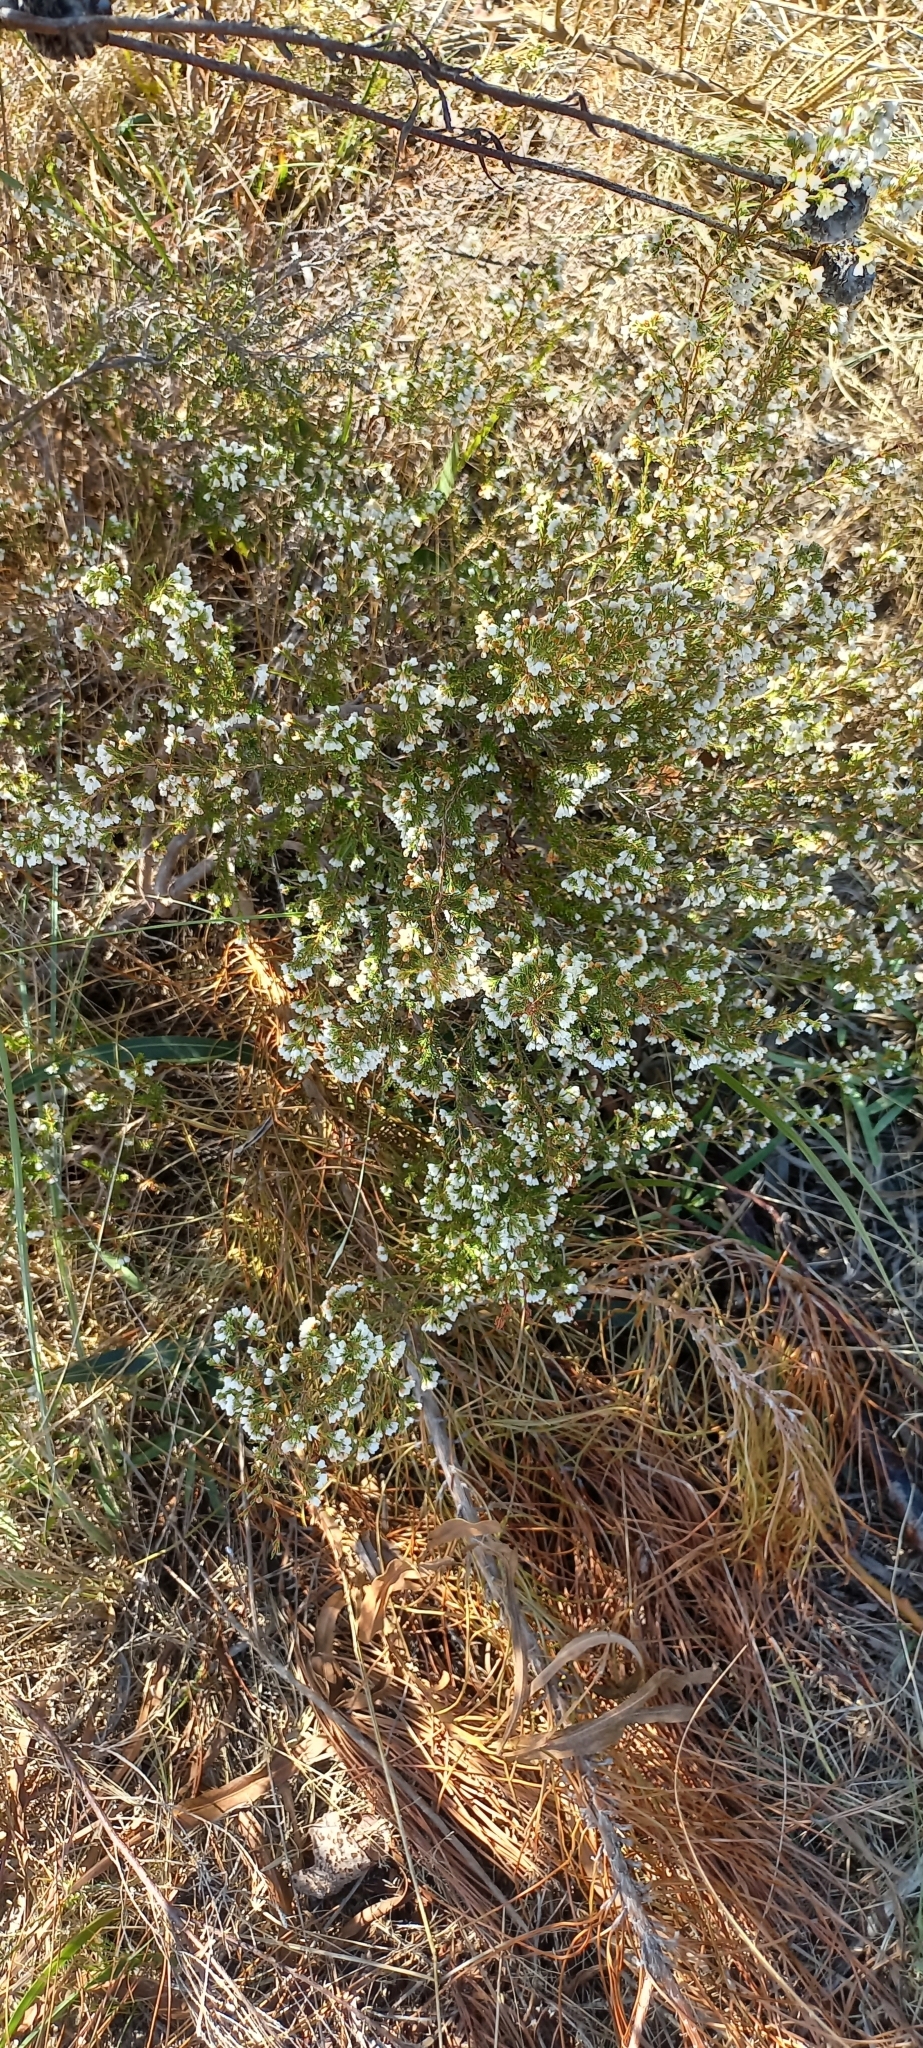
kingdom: Plantae
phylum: Tracheophyta
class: Magnoliopsida
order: Ericales
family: Ericaceae
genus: Erica
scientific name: Erica subdivaricata
